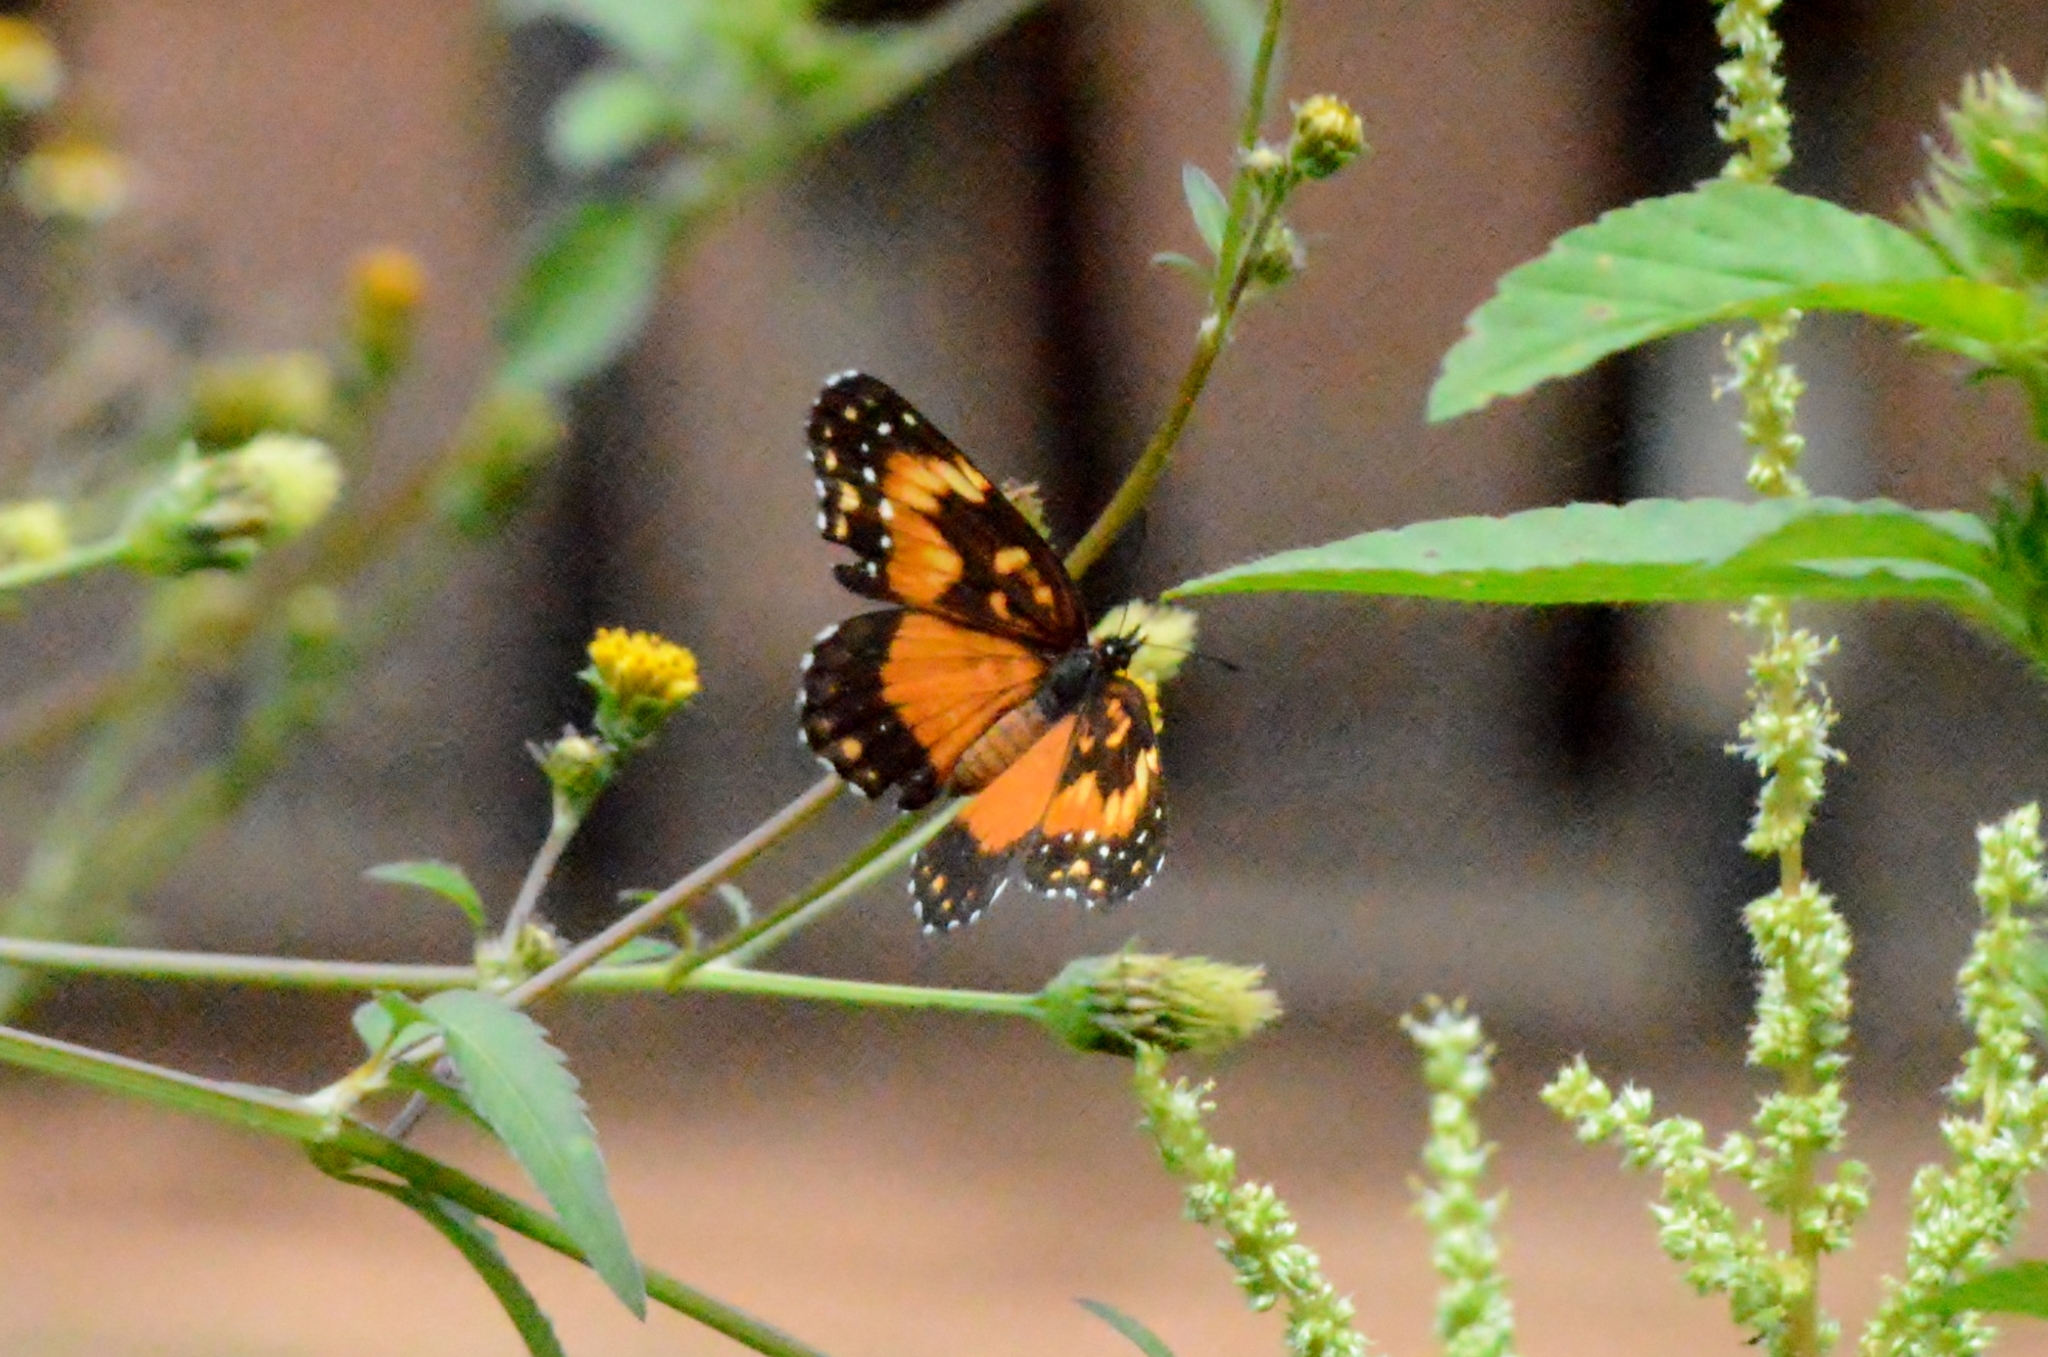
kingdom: Animalia
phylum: Arthropoda
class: Insecta
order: Lepidoptera
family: Nymphalidae
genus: Chlosyne
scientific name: Chlosyne lacinia
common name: Bordered patch
